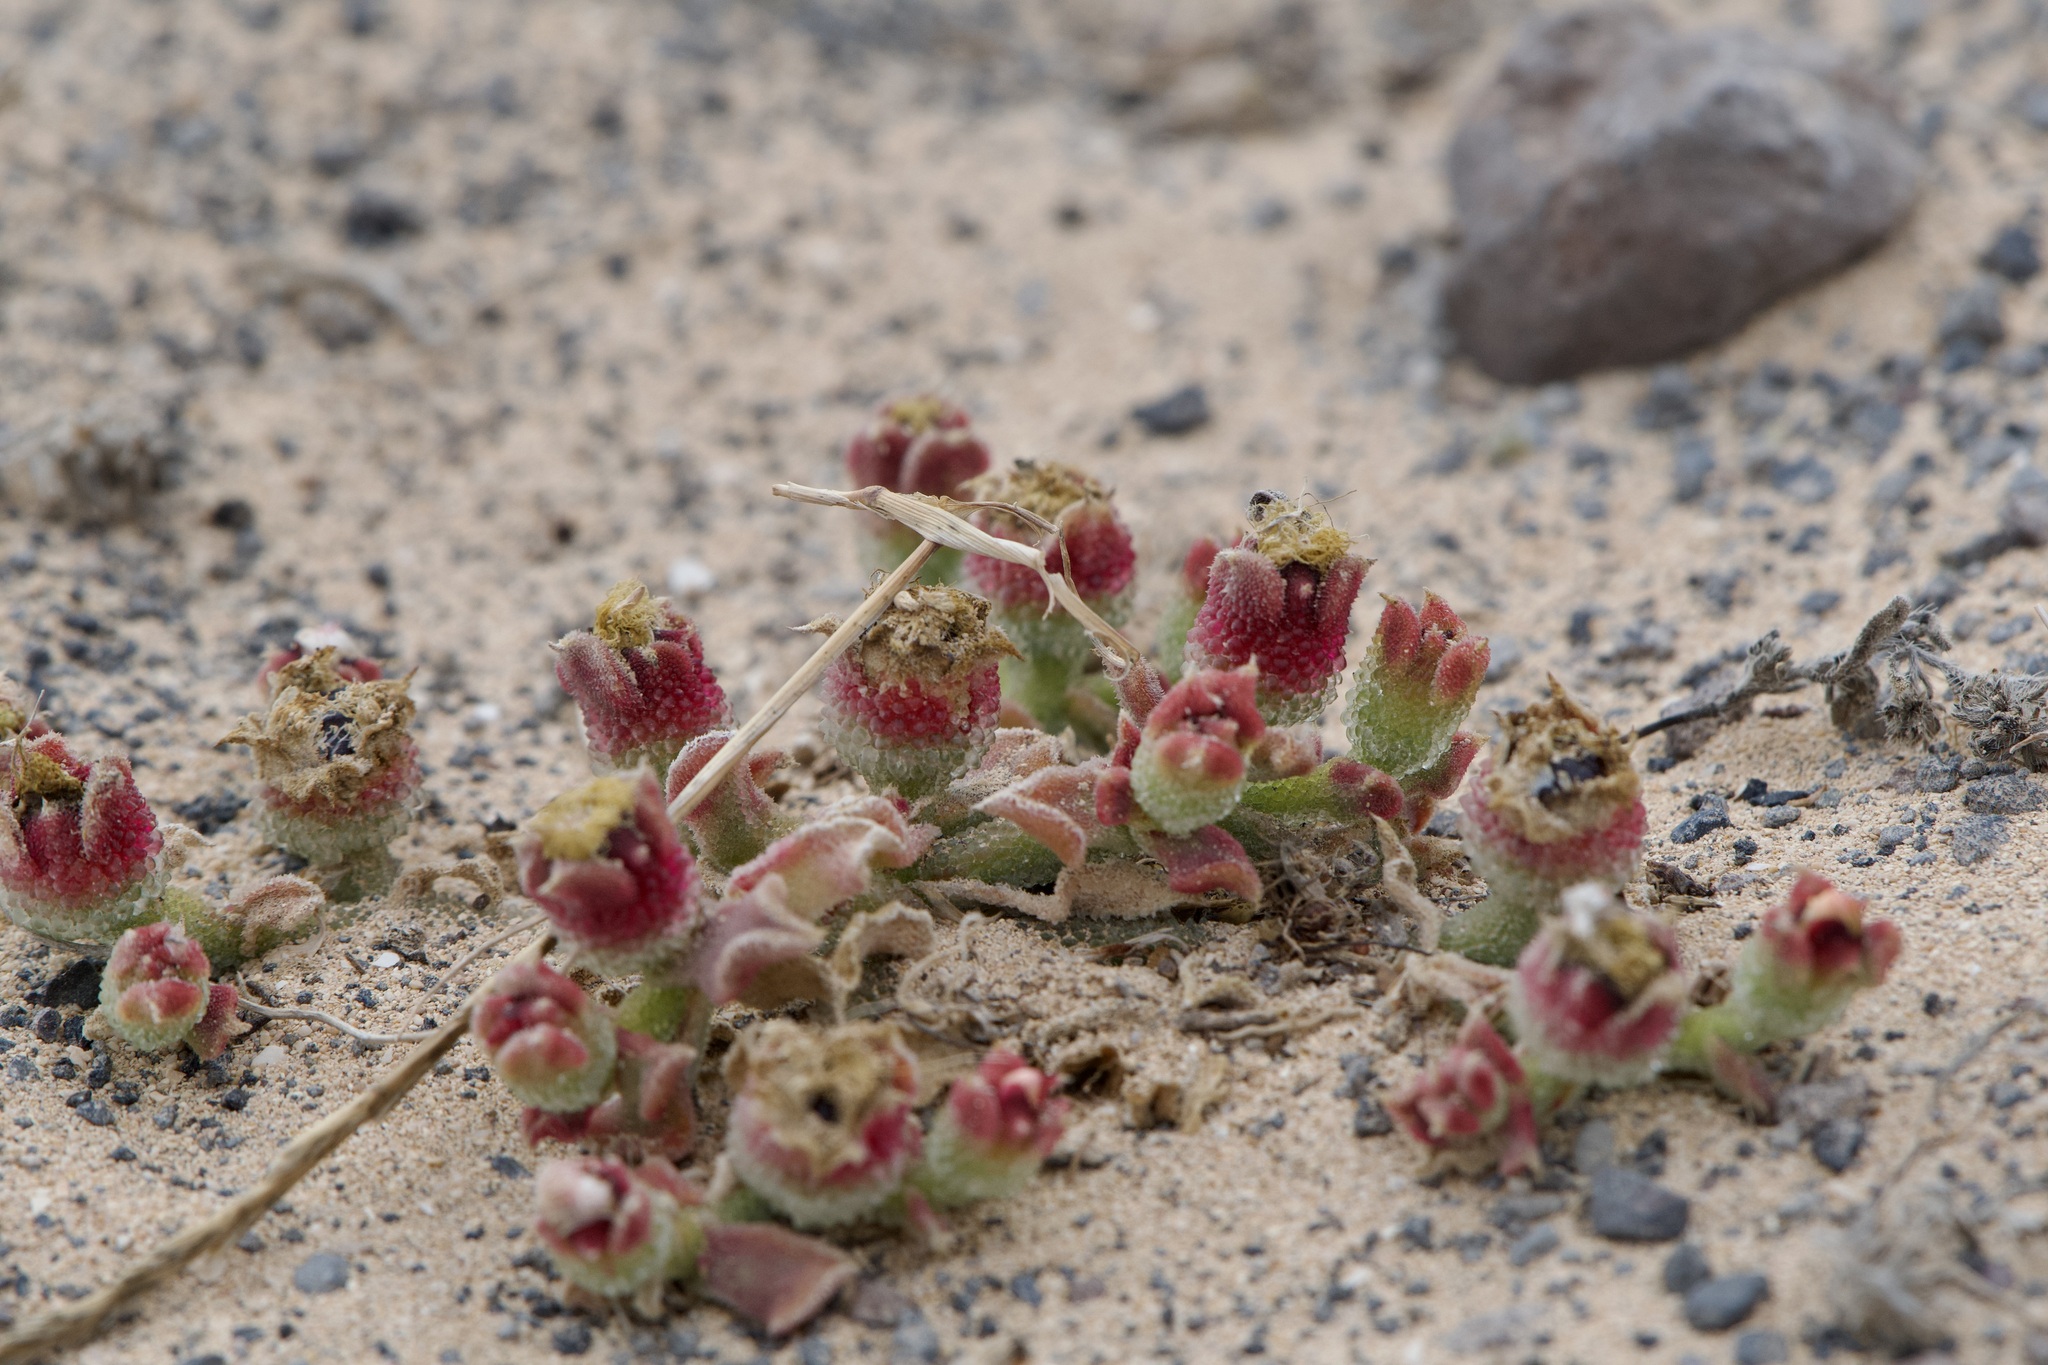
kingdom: Plantae
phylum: Tracheophyta
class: Magnoliopsida
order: Caryophyllales
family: Aizoaceae
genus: Mesembryanthemum
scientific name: Mesembryanthemum crystallinum
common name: Common iceplant
